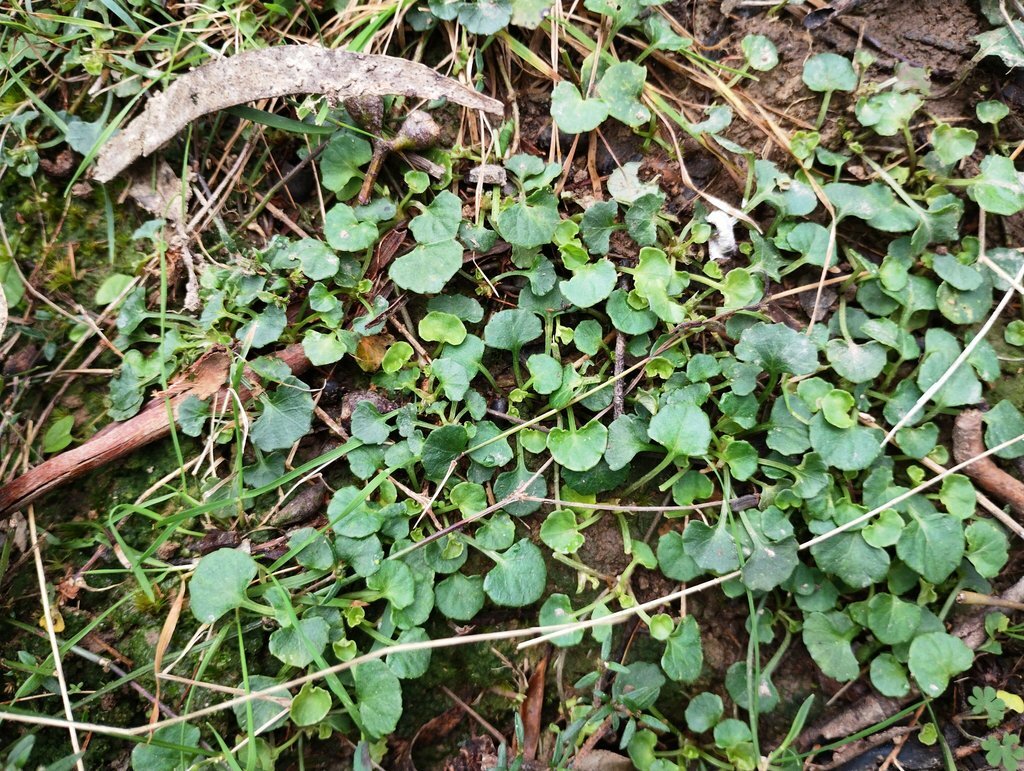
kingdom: Plantae
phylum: Tracheophyta
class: Magnoliopsida
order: Malpighiales
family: Violaceae
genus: Viola
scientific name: Viola hederacea
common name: Australian violet
